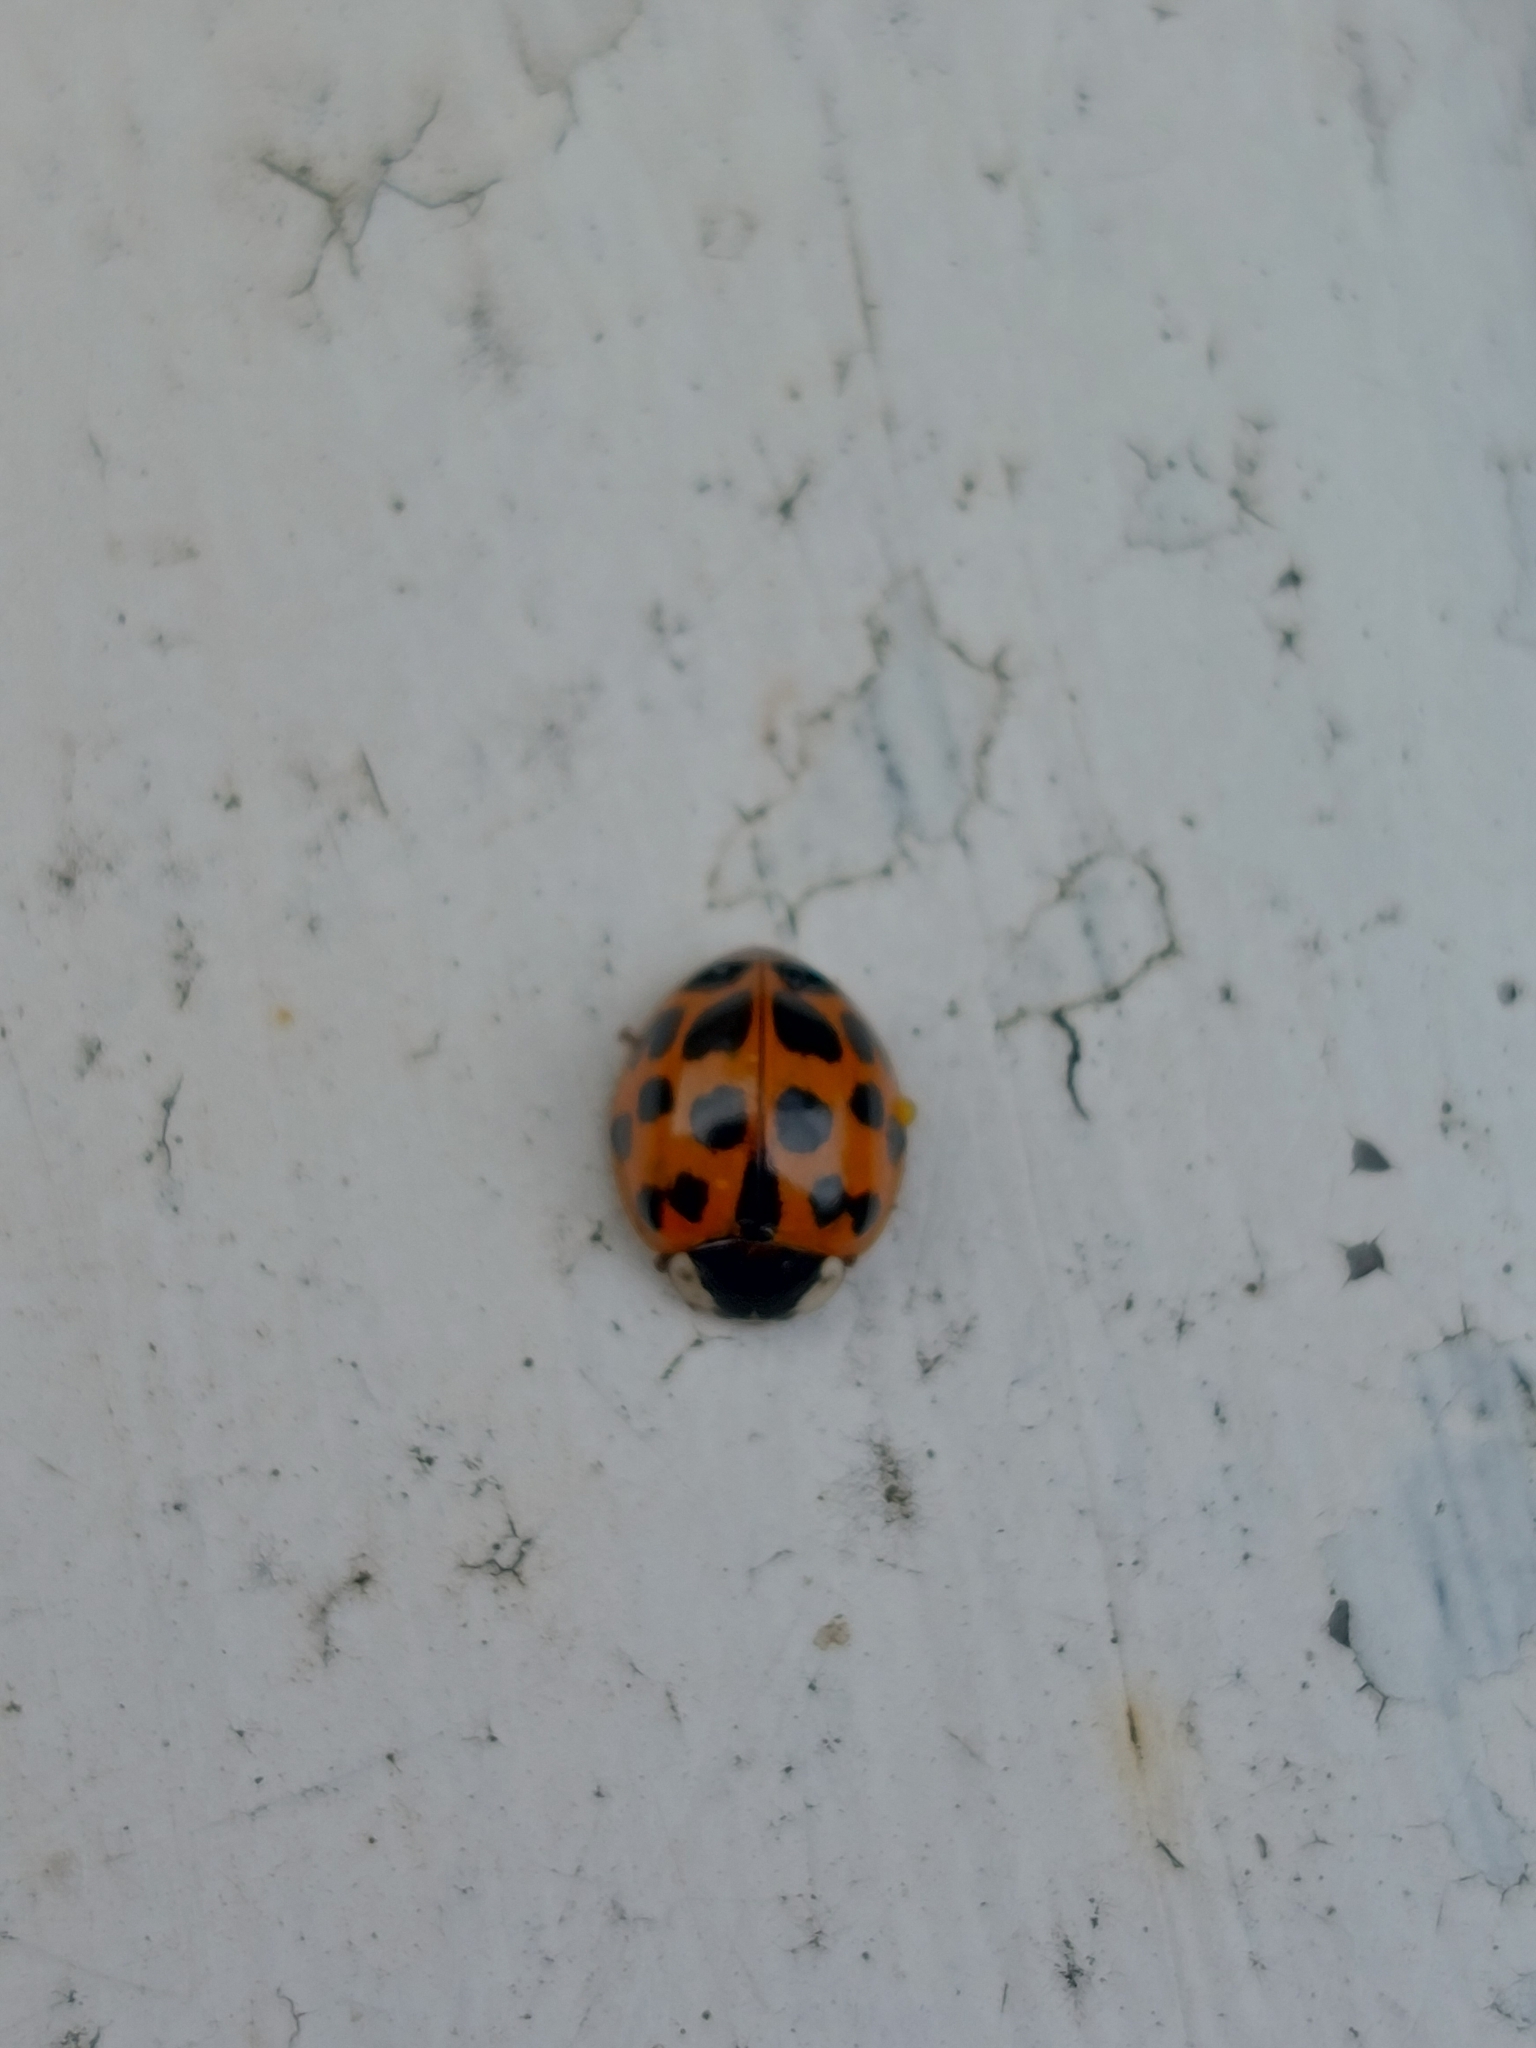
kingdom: Animalia
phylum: Arthropoda
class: Insecta
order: Coleoptera
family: Coccinellidae
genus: Harmonia
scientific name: Harmonia axyridis
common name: Harlequin ladybird
